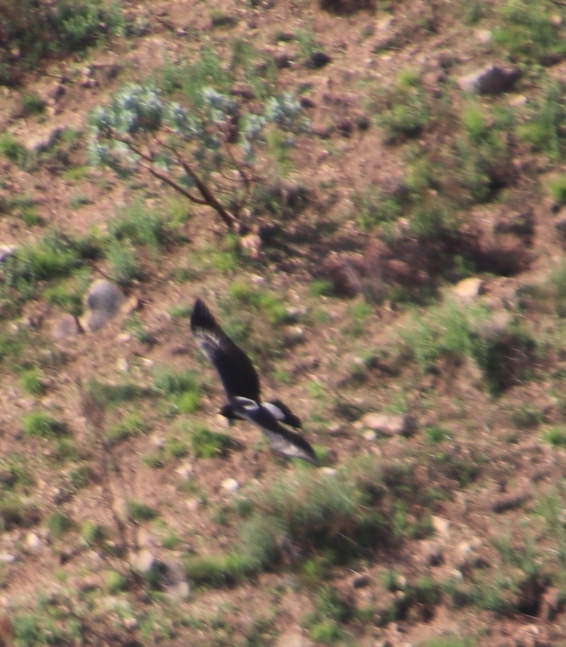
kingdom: Animalia
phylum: Chordata
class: Aves
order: Accipitriformes
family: Accipitridae
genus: Aquila
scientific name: Aquila verreauxii
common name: Verreaux's eagle
